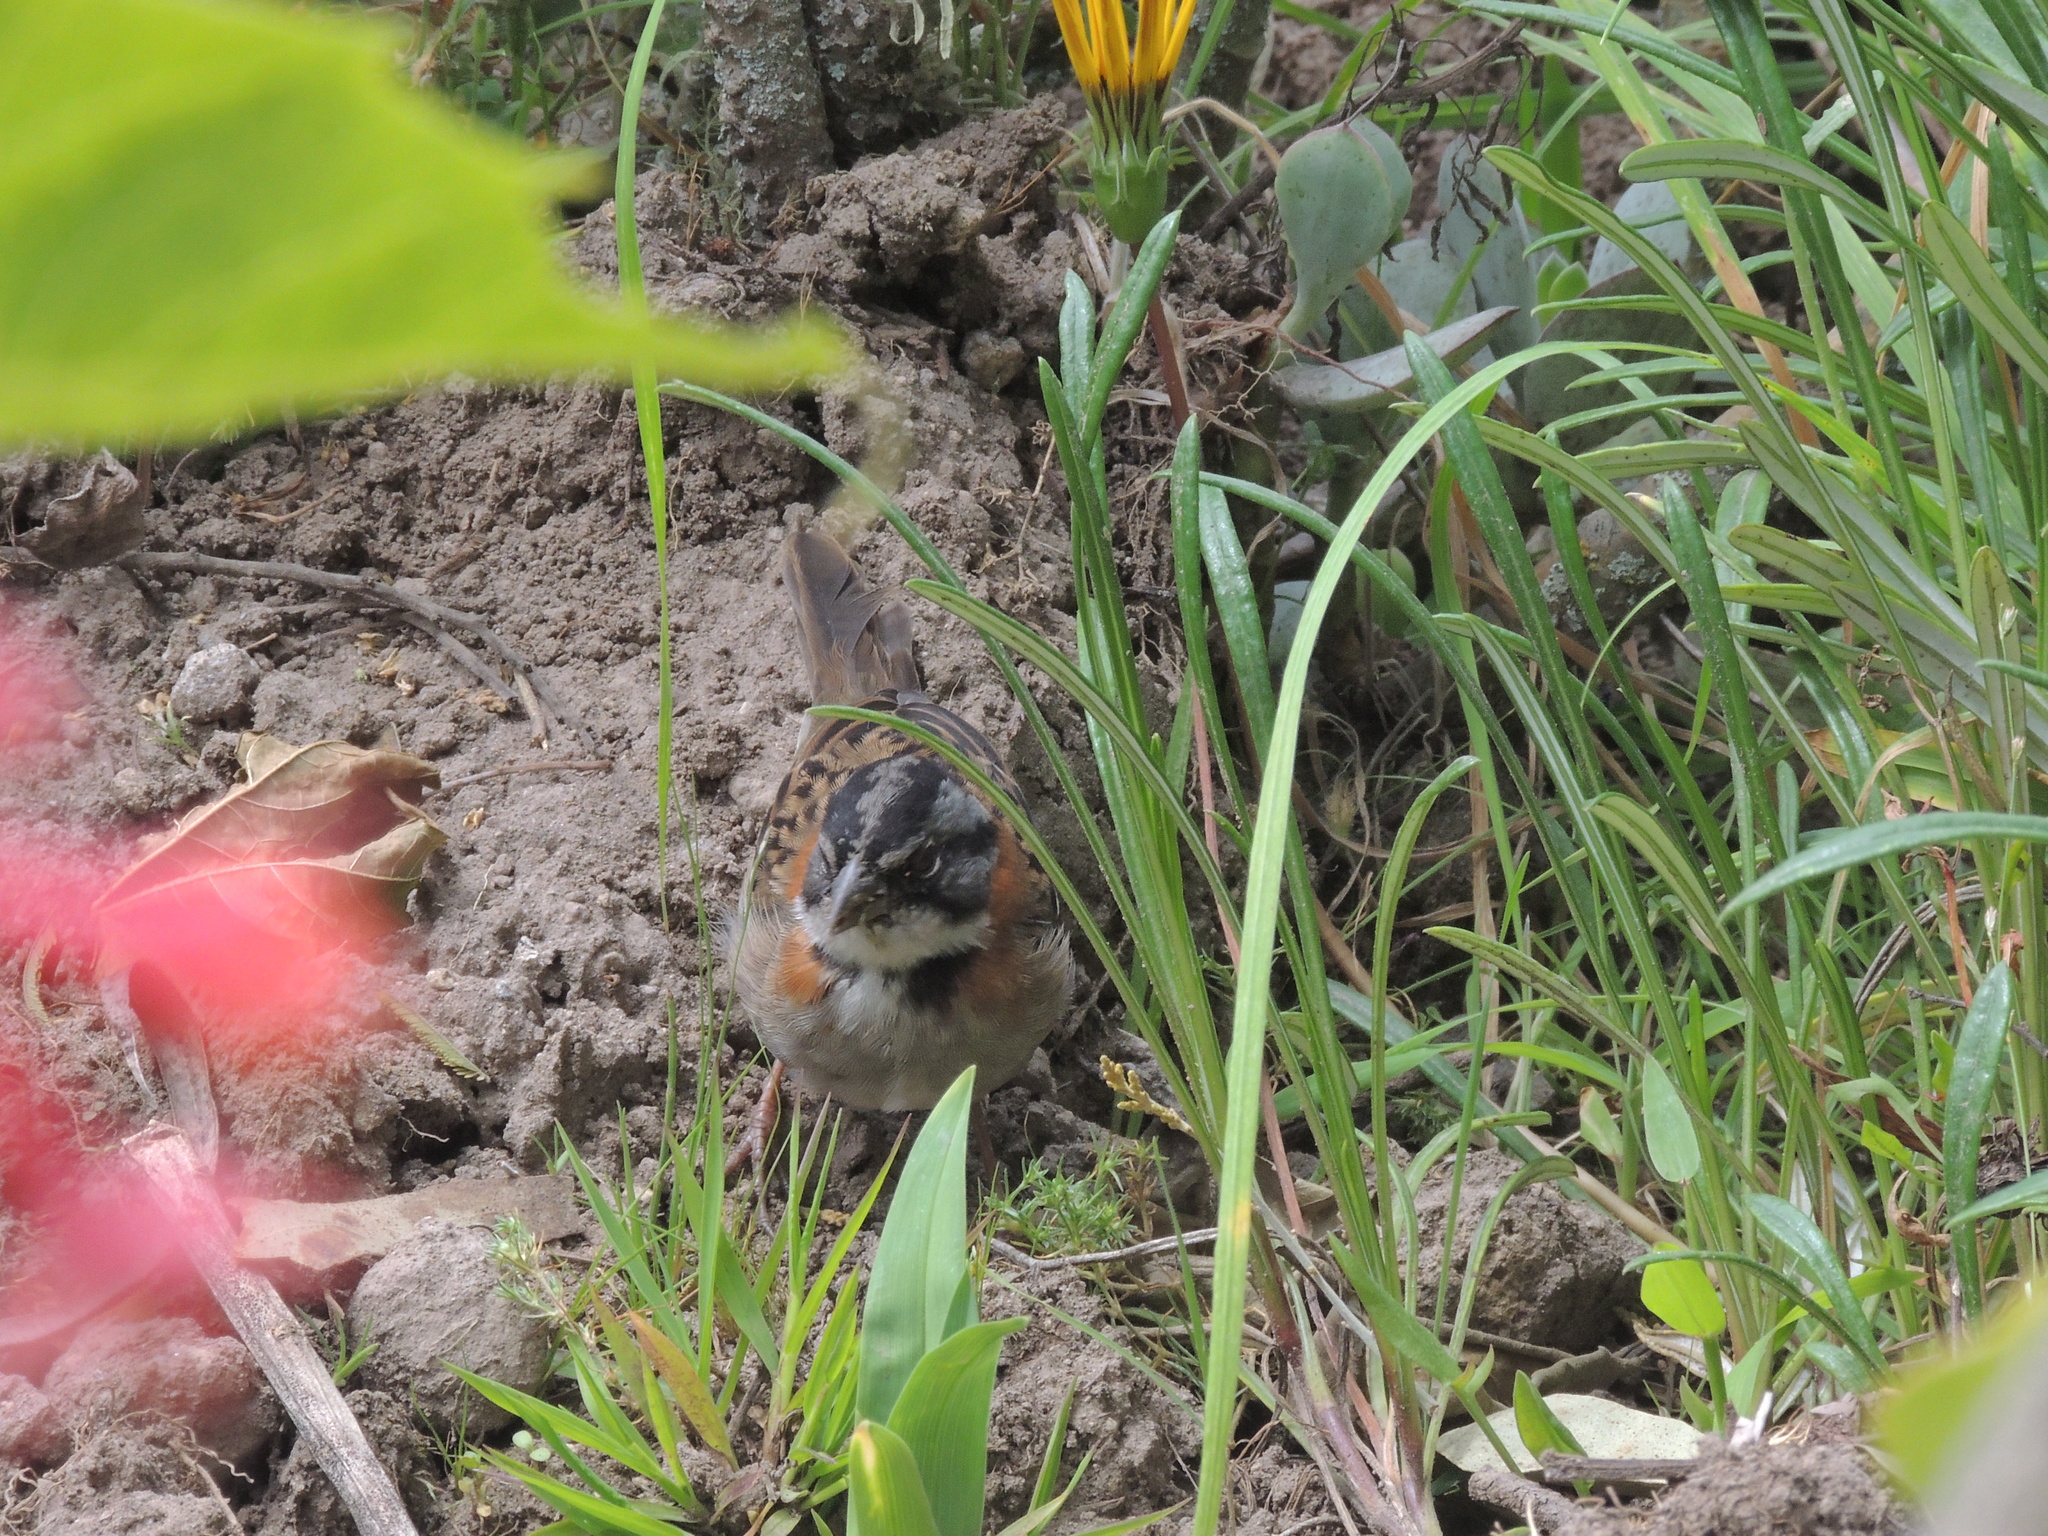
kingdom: Animalia
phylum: Chordata
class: Aves
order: Passeriformes
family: Passerellidae
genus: Zonotrichia
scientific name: Zonotrichia capensis
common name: Rufous-collared sparrow
